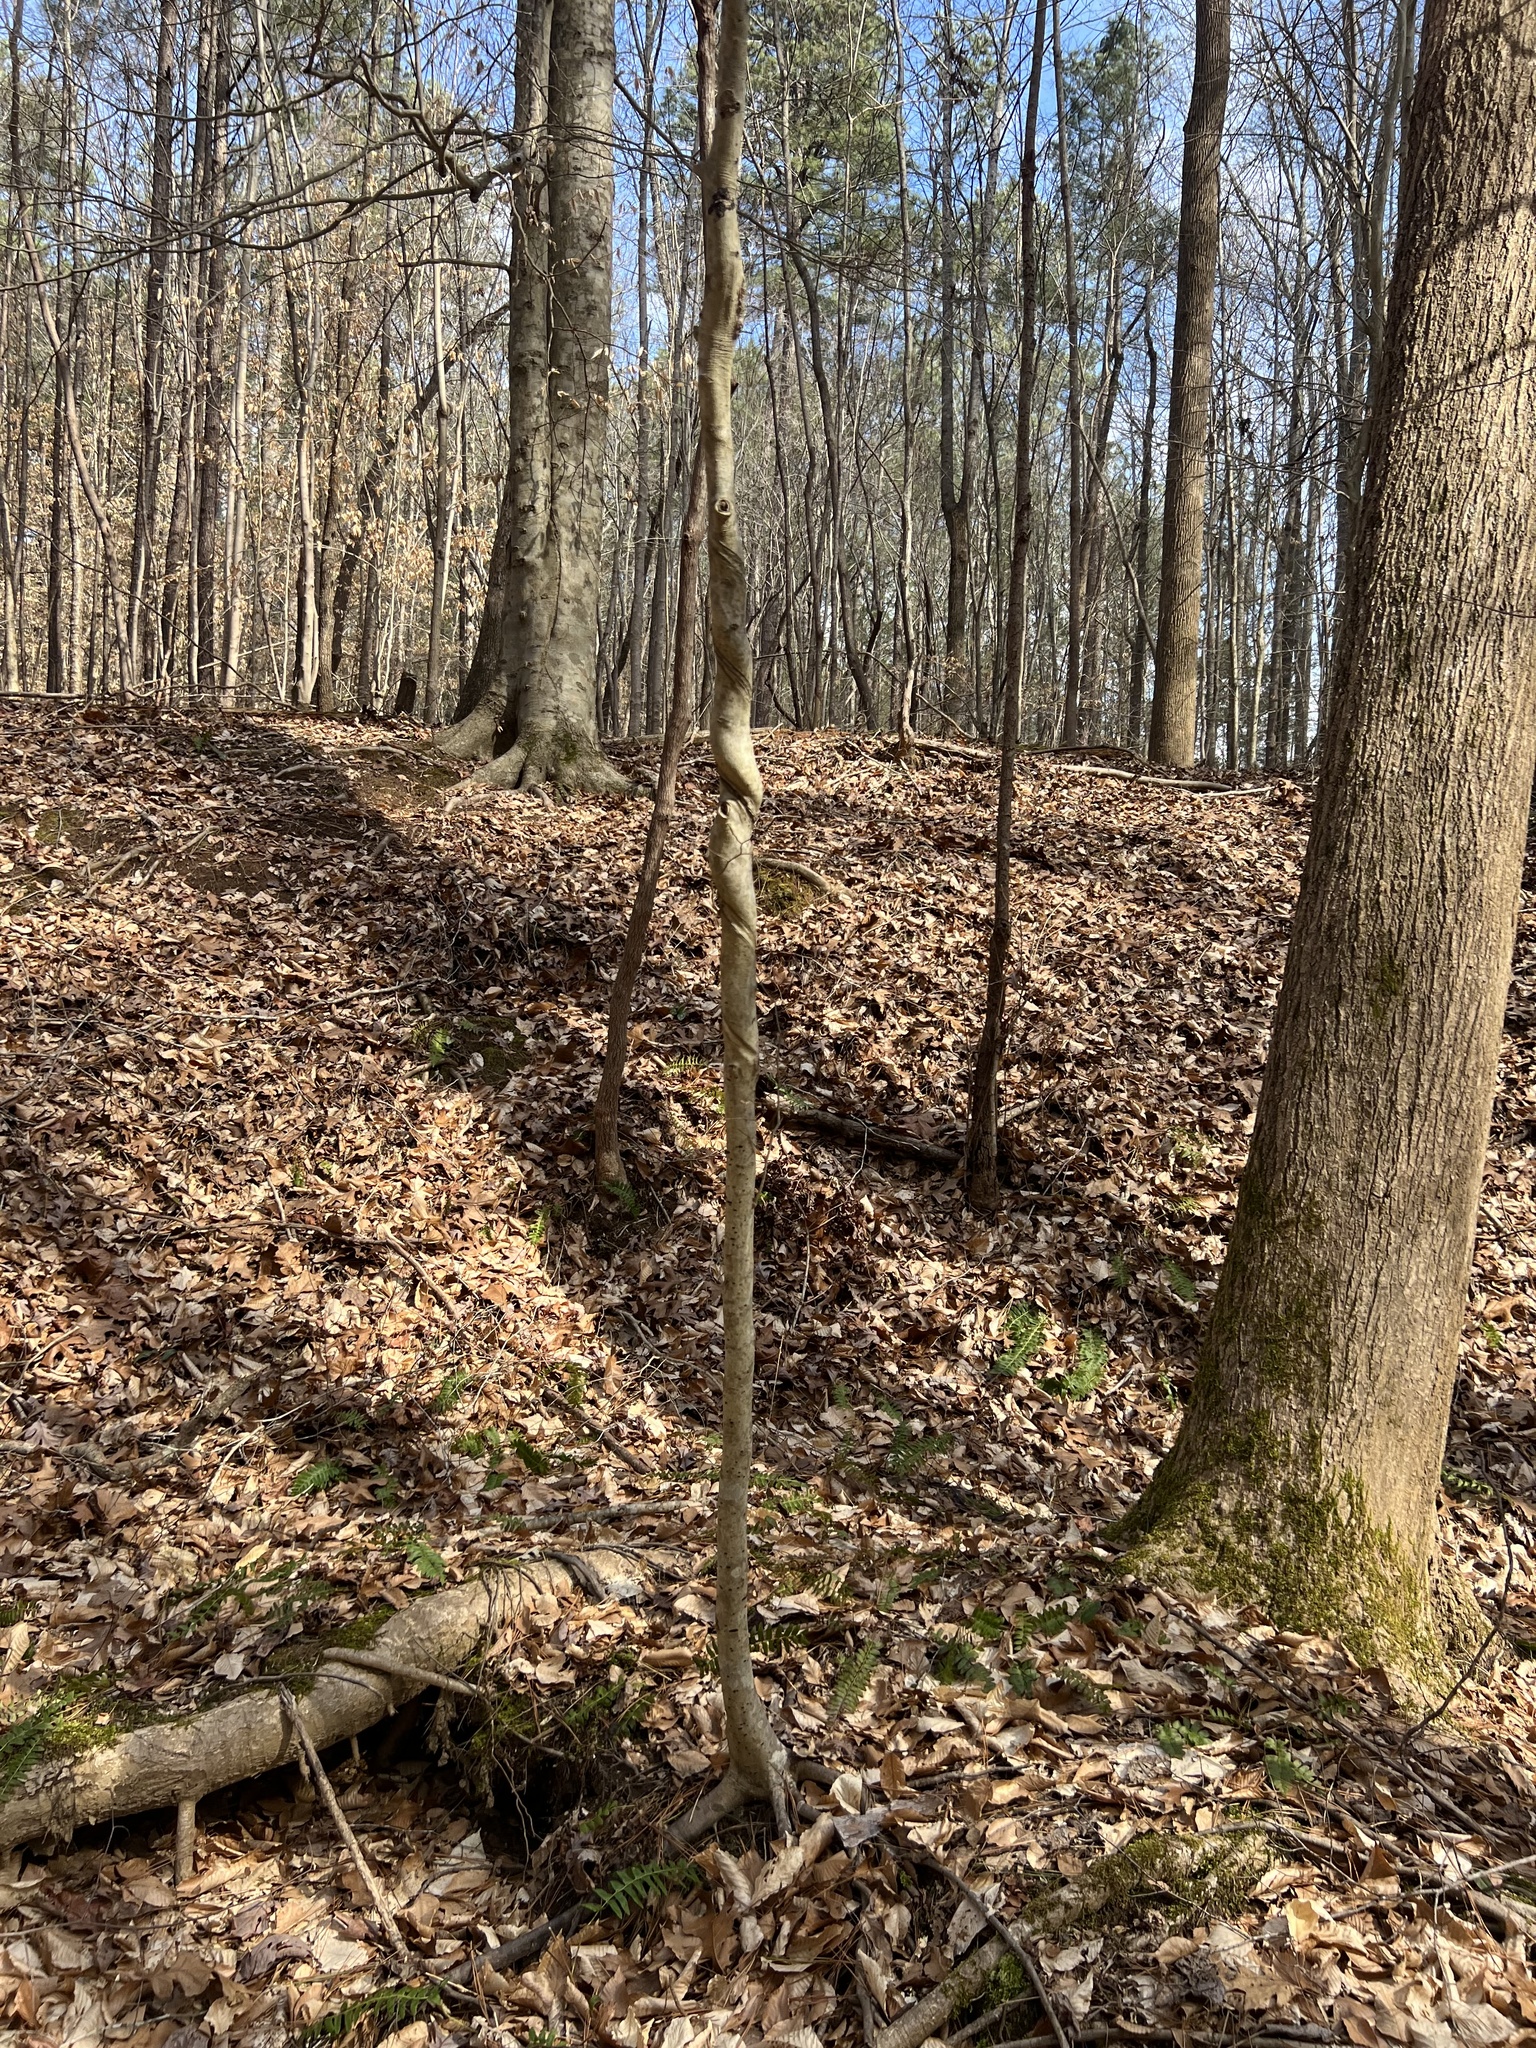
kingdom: Plantae
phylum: Tracheophyta
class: Magnoliopsida
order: Fagales
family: Fagaceae
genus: Fagus
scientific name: Fagus grandifolia
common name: American beech
